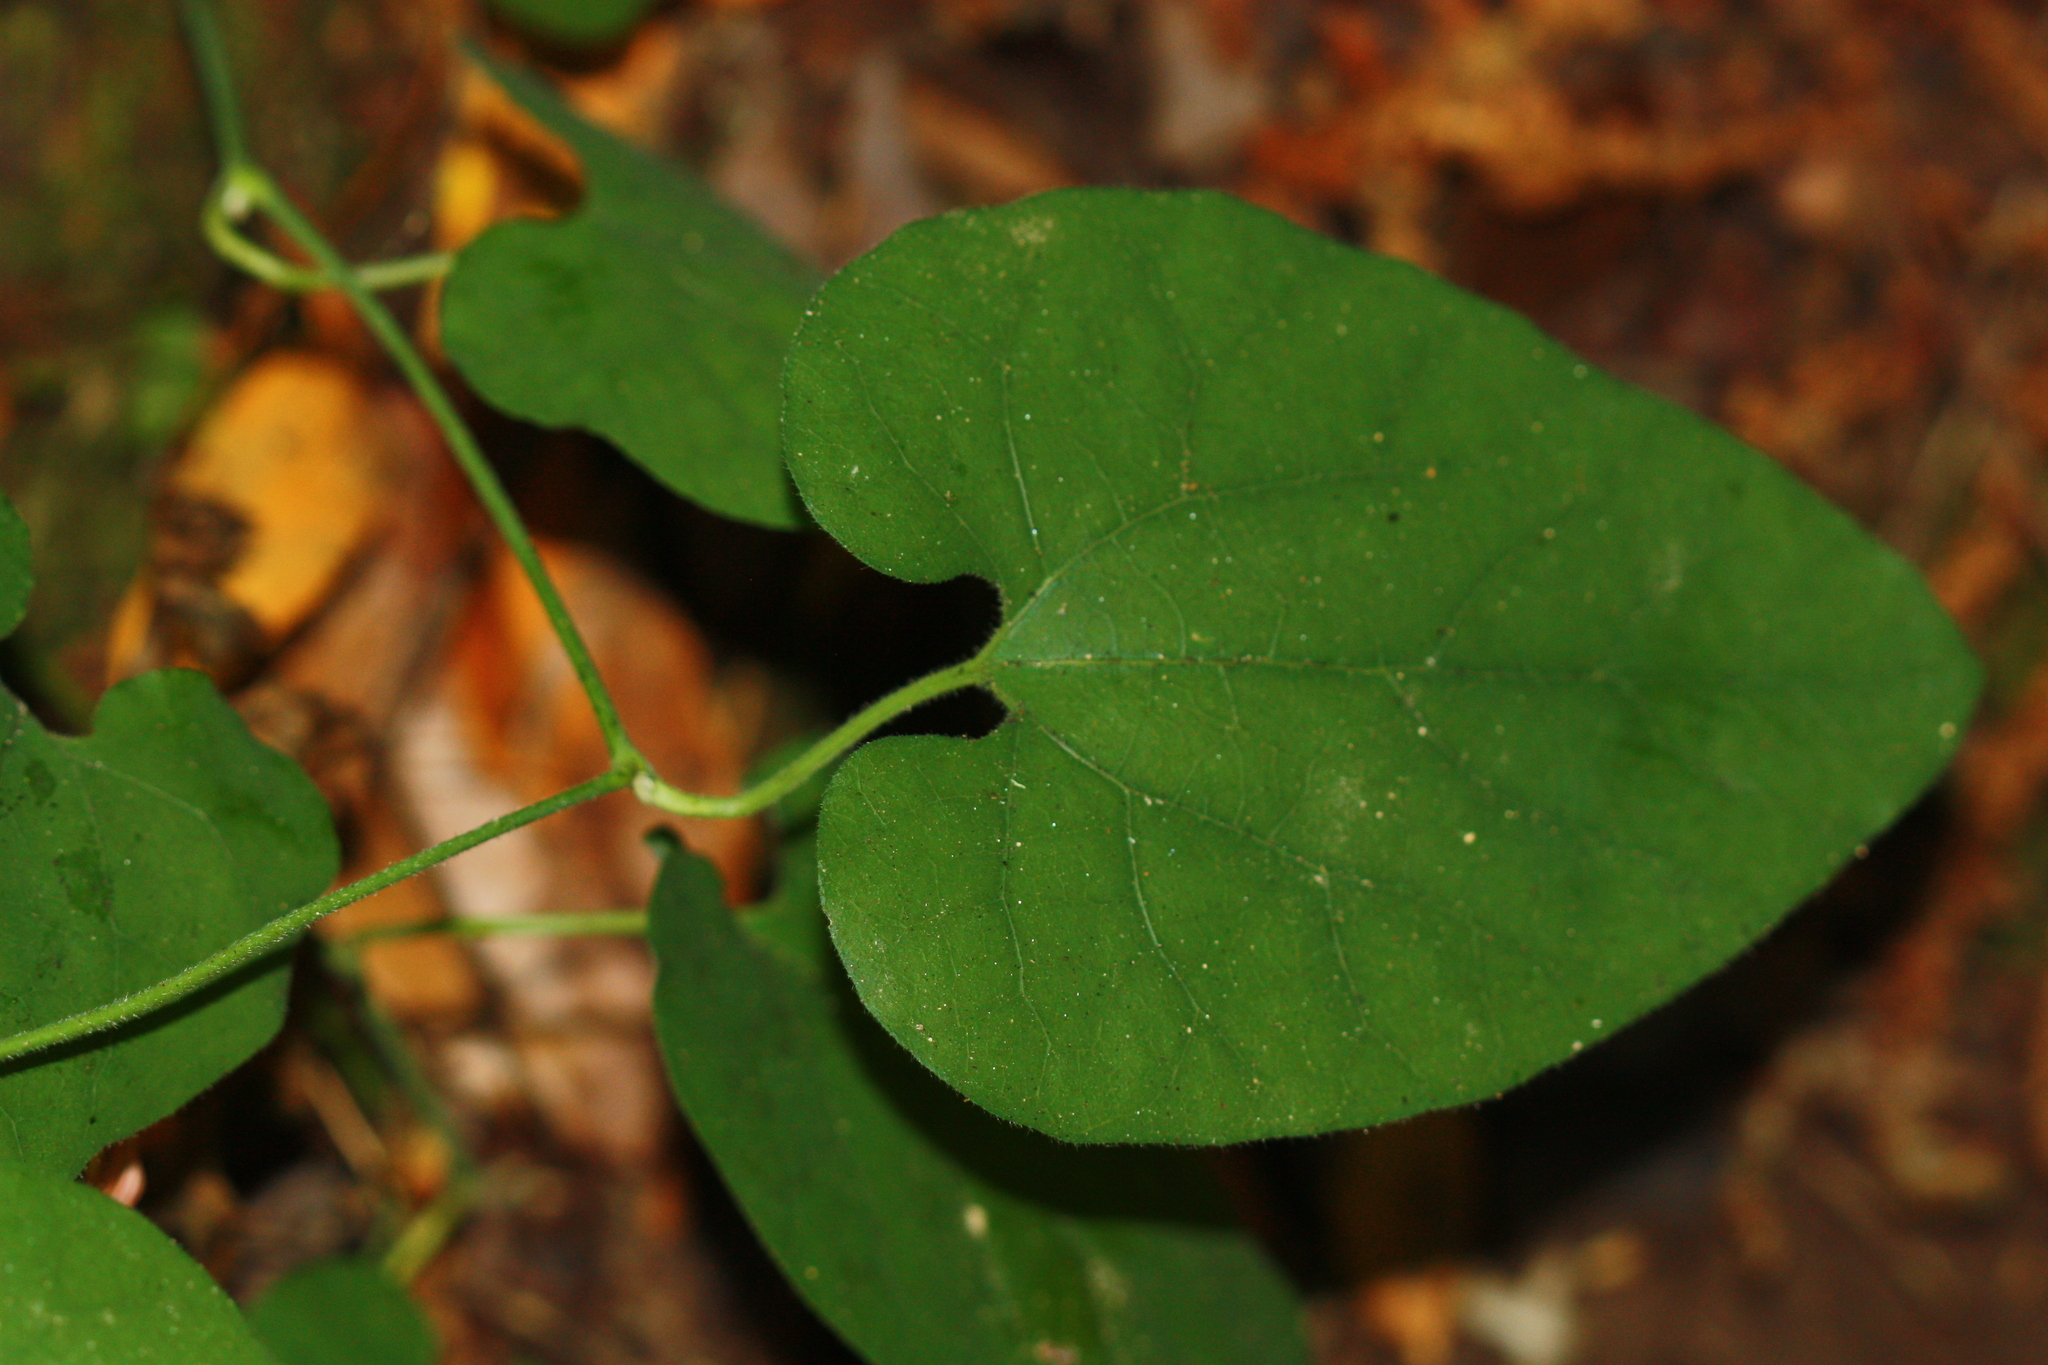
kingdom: Plantae
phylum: Tracheophyta
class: Magnoliopsida
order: Piperales
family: Aristolochiaceae
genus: Isotrema
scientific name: Isotrema californicum
